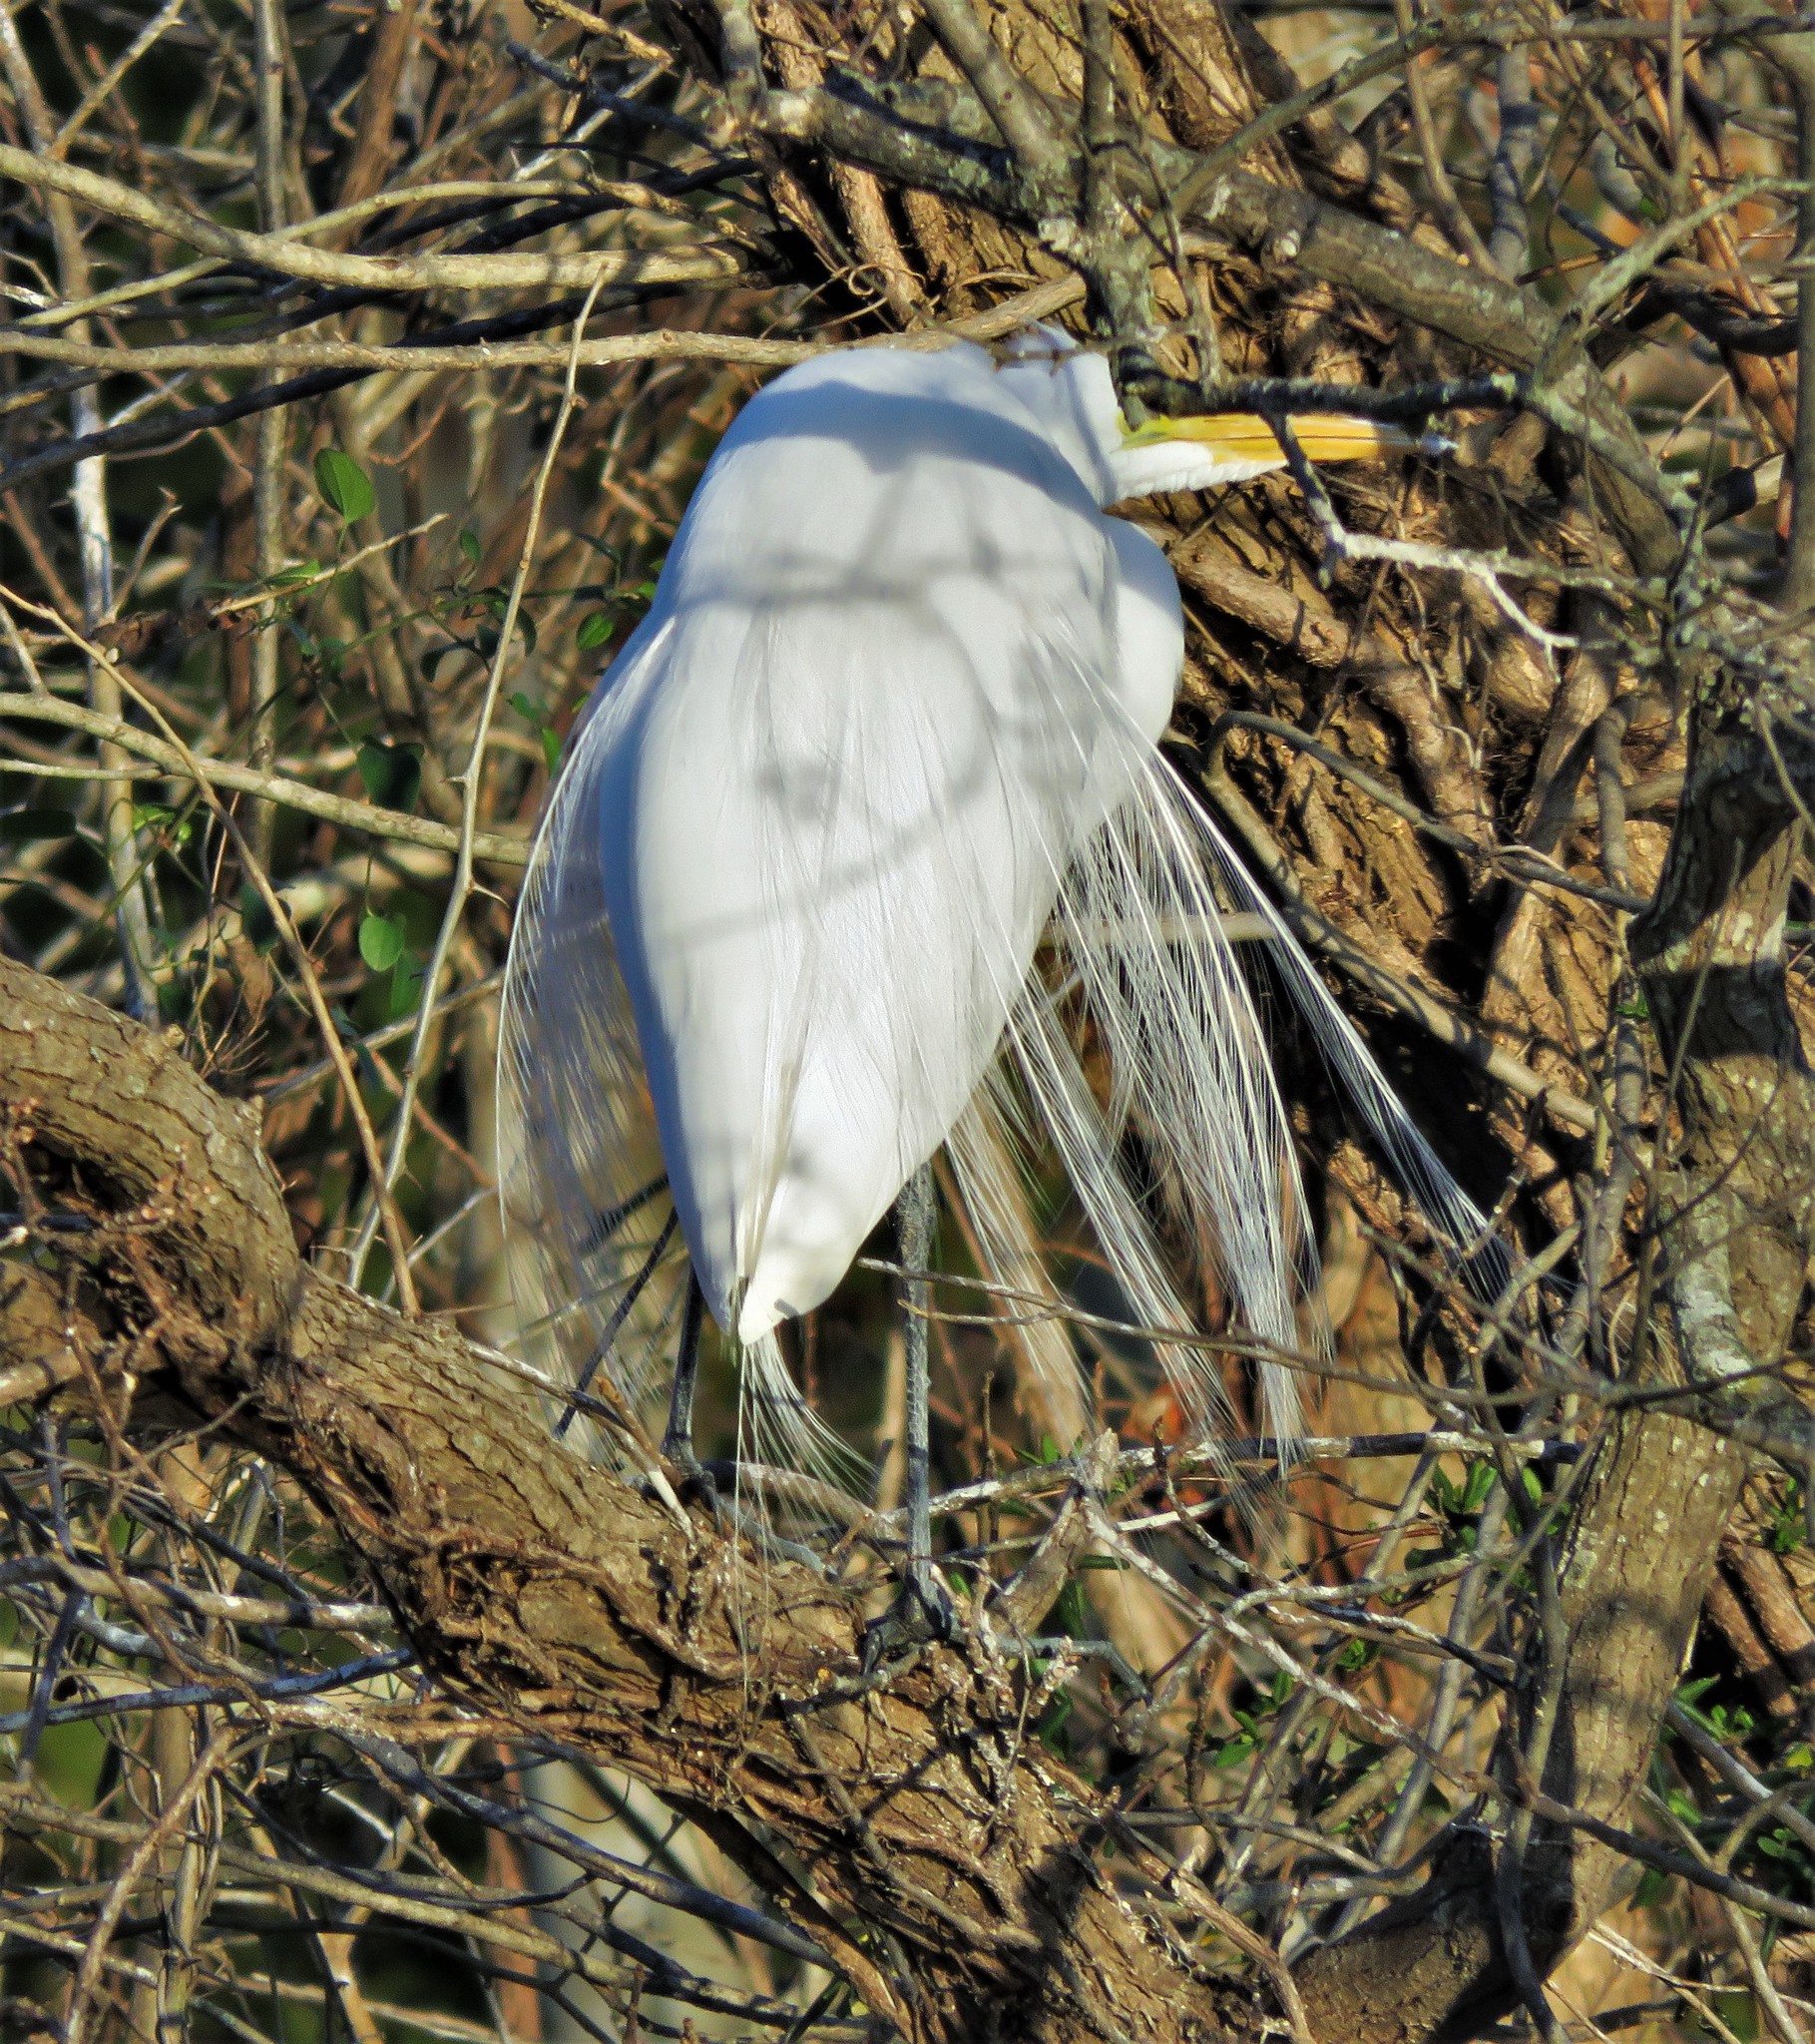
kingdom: Animalia
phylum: Chordata
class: Aves
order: Pelecaniformes
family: Ardeidae
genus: Ardea
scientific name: Ardea alba
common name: Great egret
